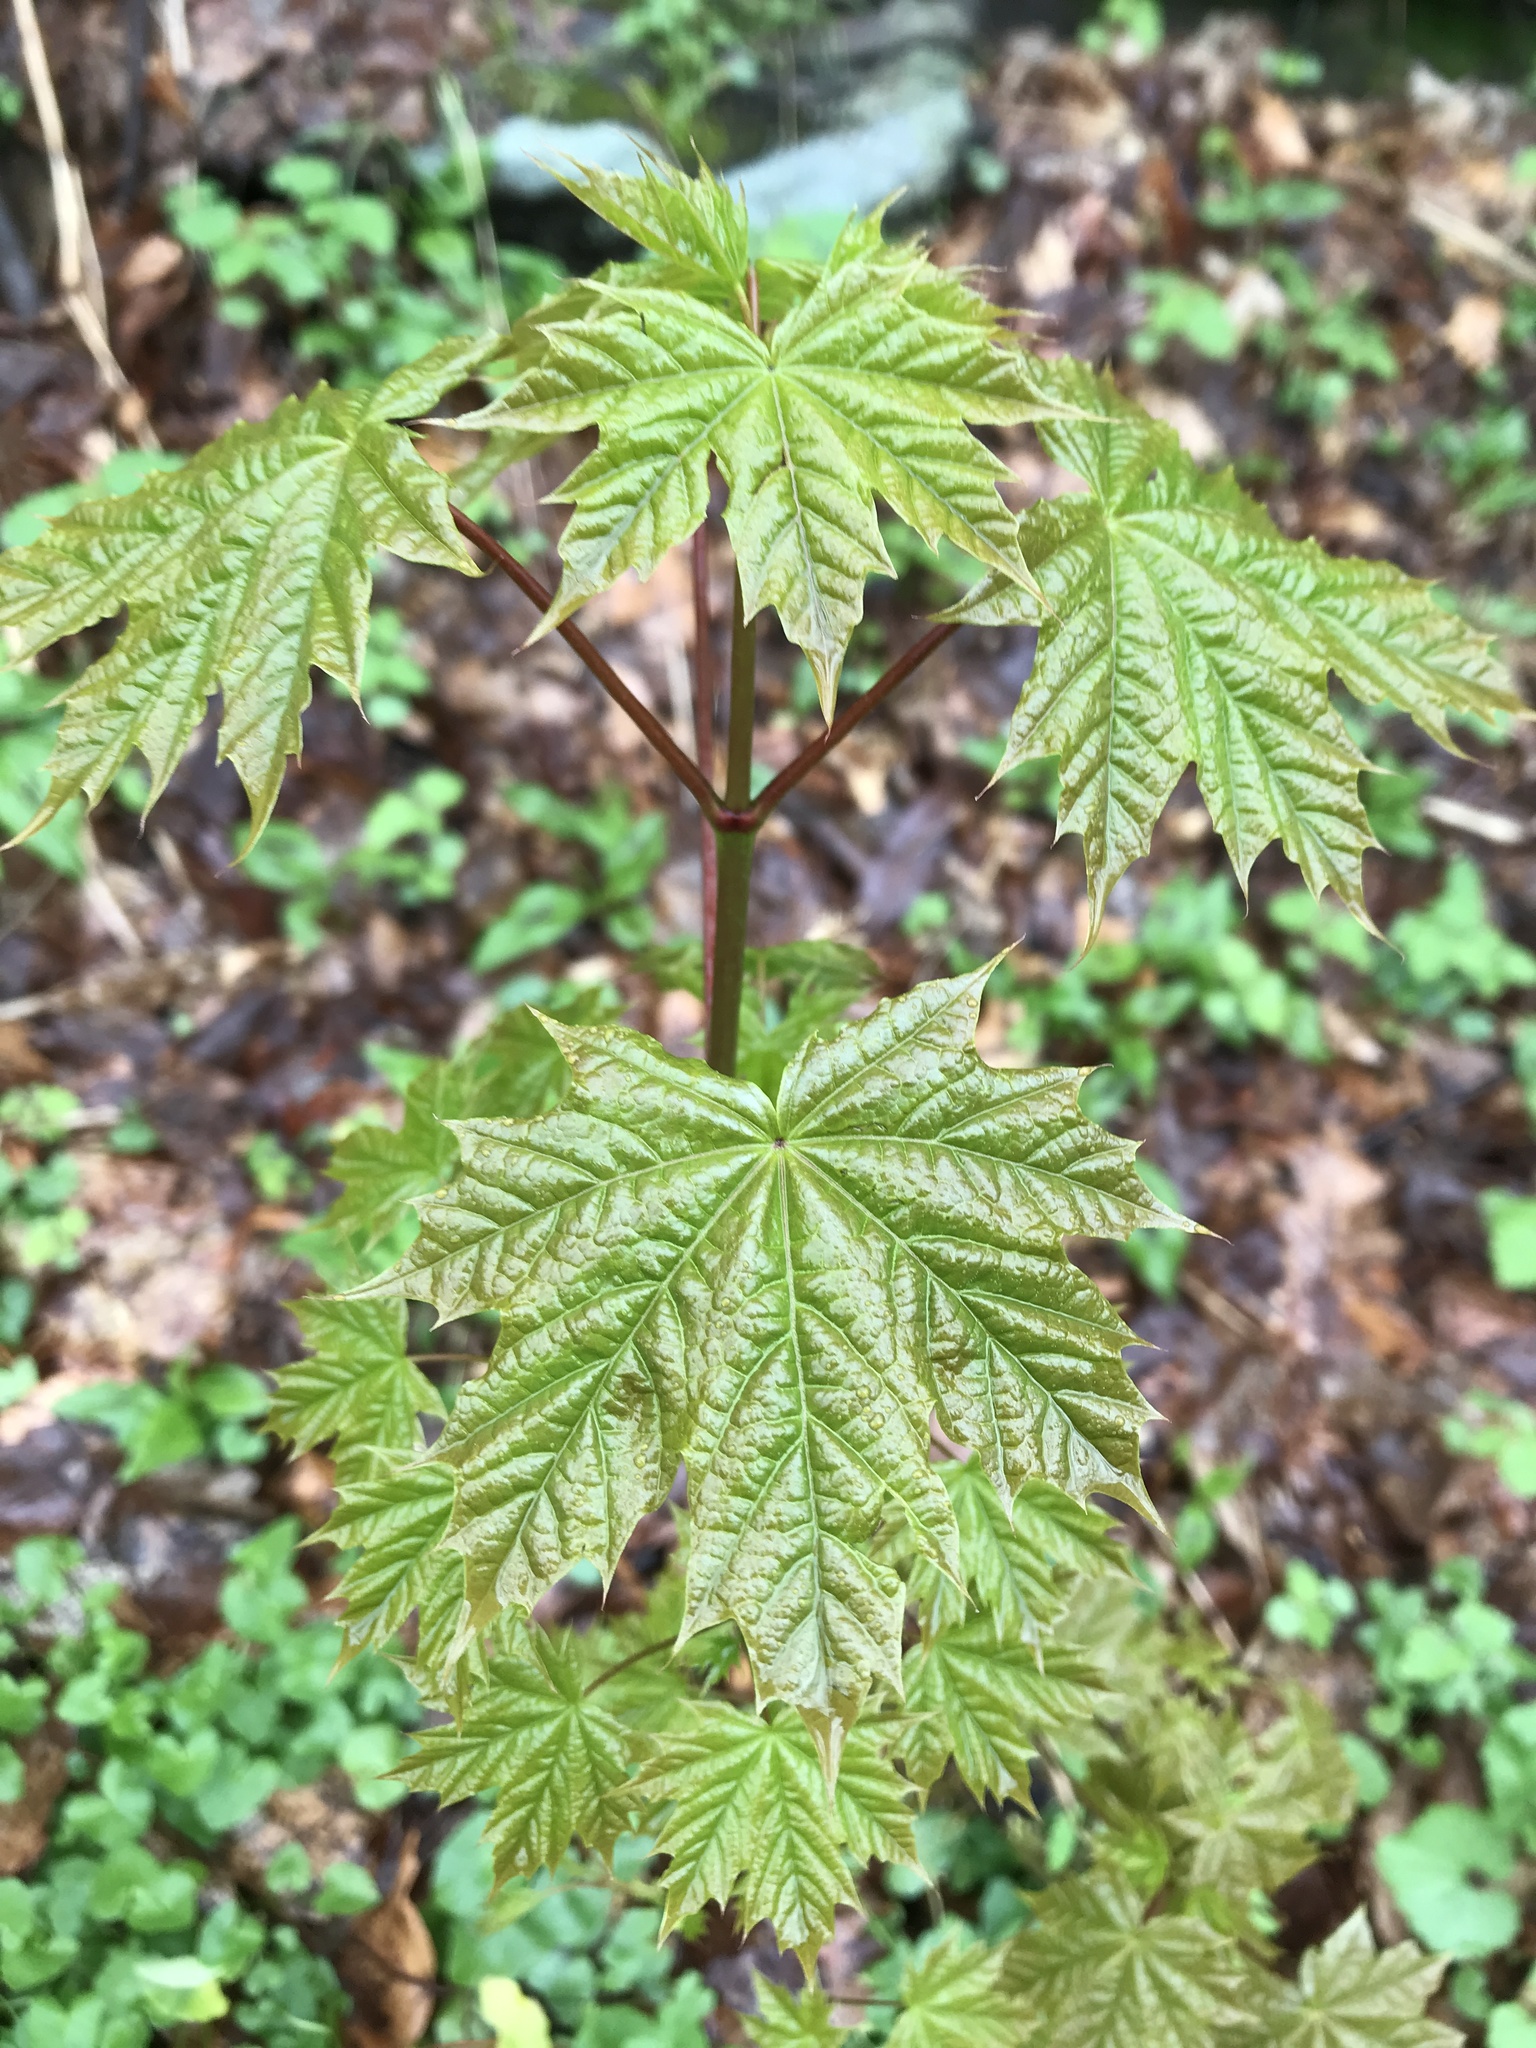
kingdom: Plantae
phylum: Tracheophyta
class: Magnoliopsida
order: Sapindales
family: Sapindaceae
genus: Acer
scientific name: Acer platanoides
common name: Norway maple
